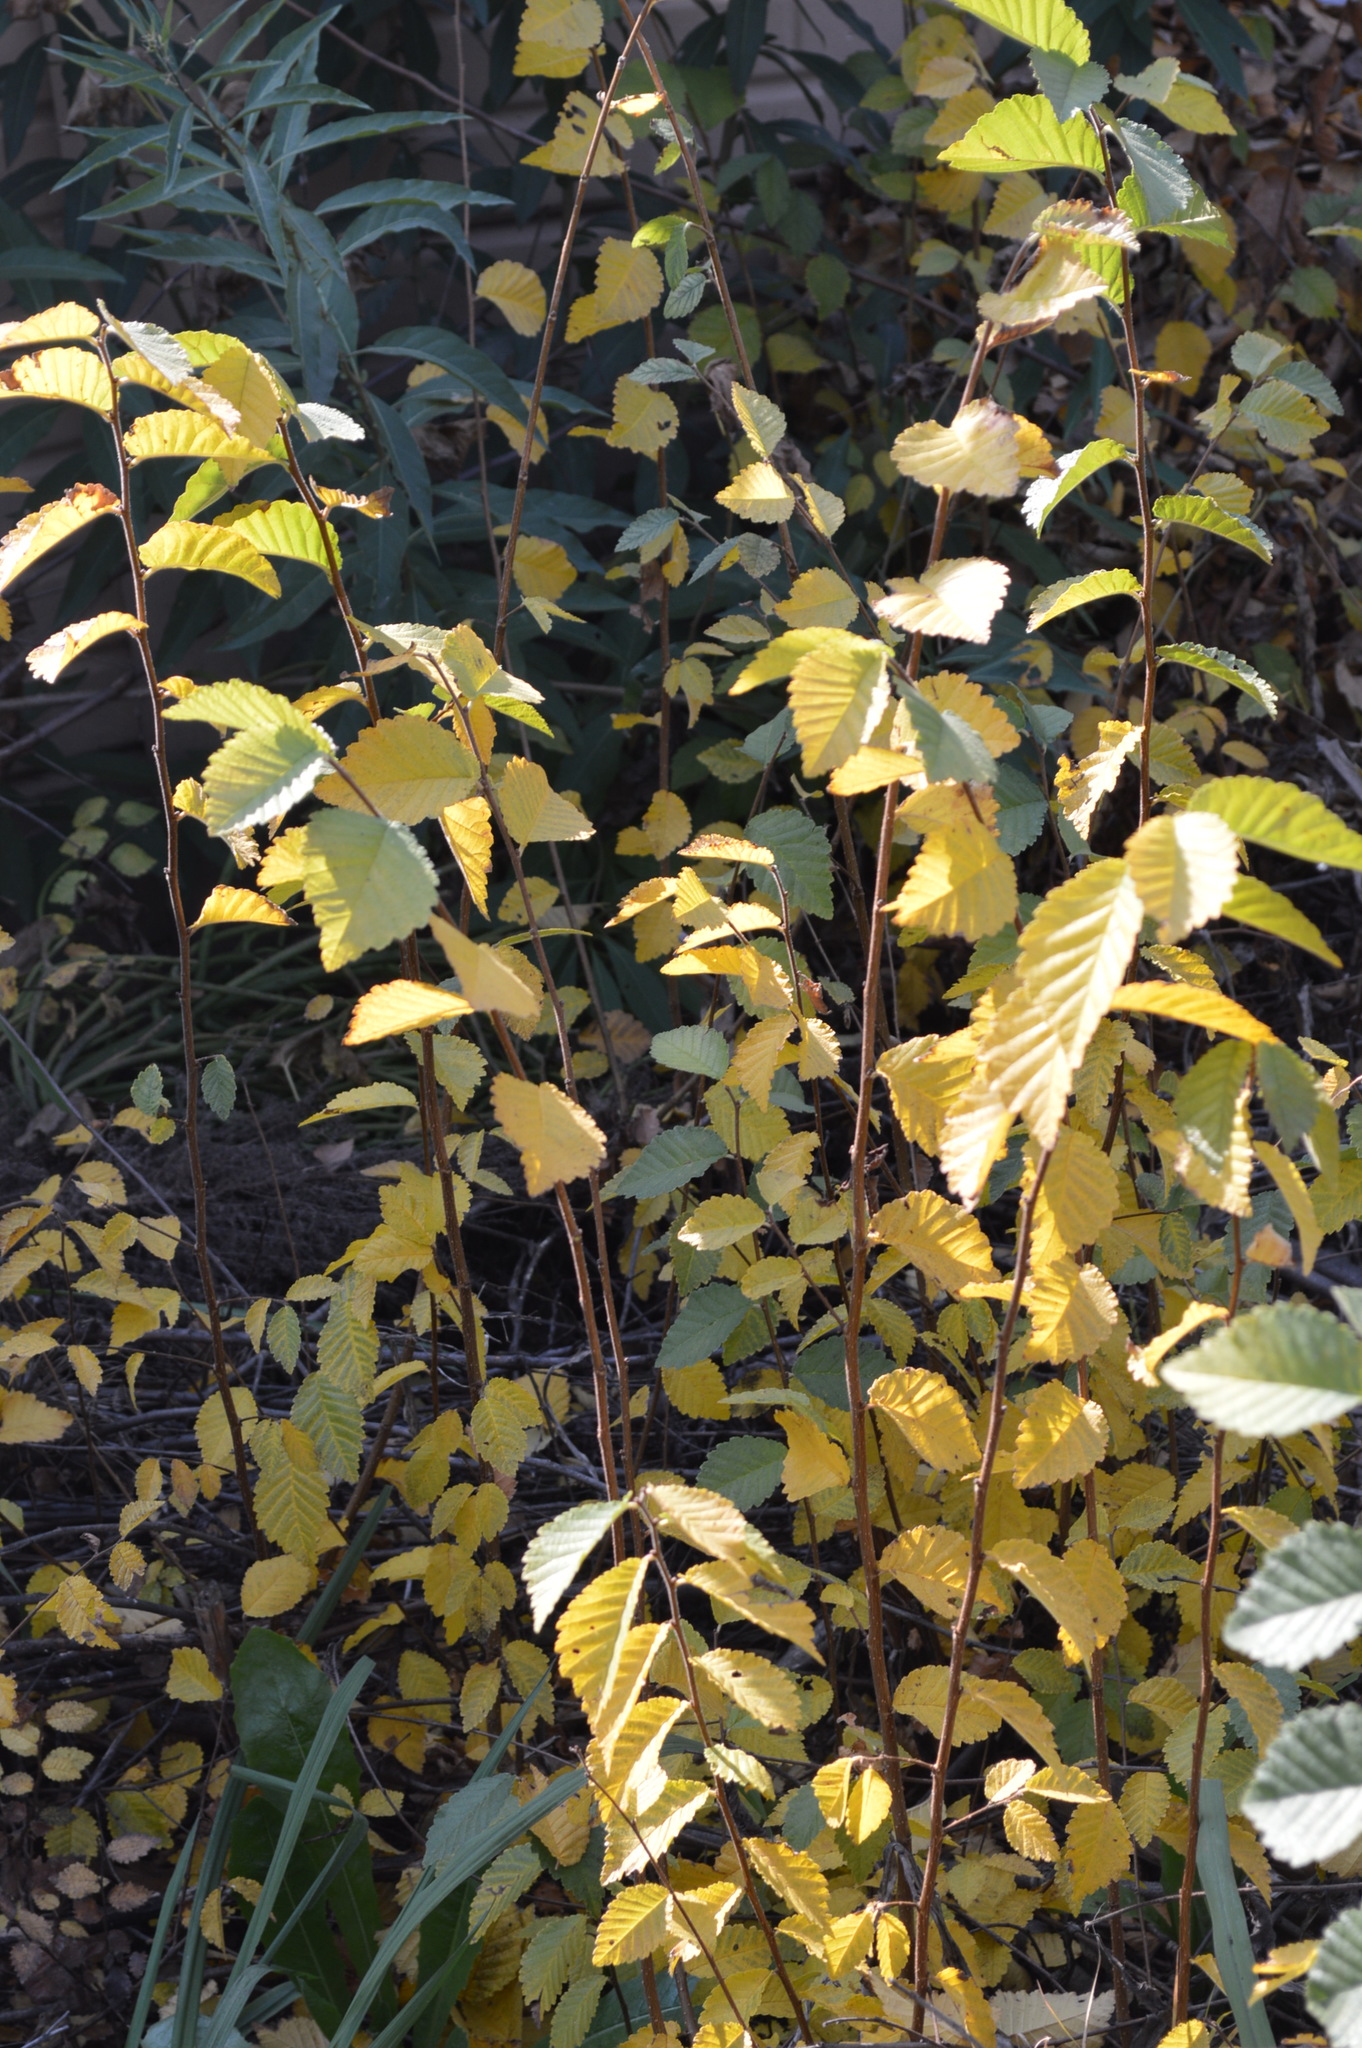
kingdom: Plantae
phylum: Tracheophyta
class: Magnoliopsida
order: Rosales
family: Ulmaceae
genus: Ulmus
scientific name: Ulmus minor
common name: Small-leaved elm
